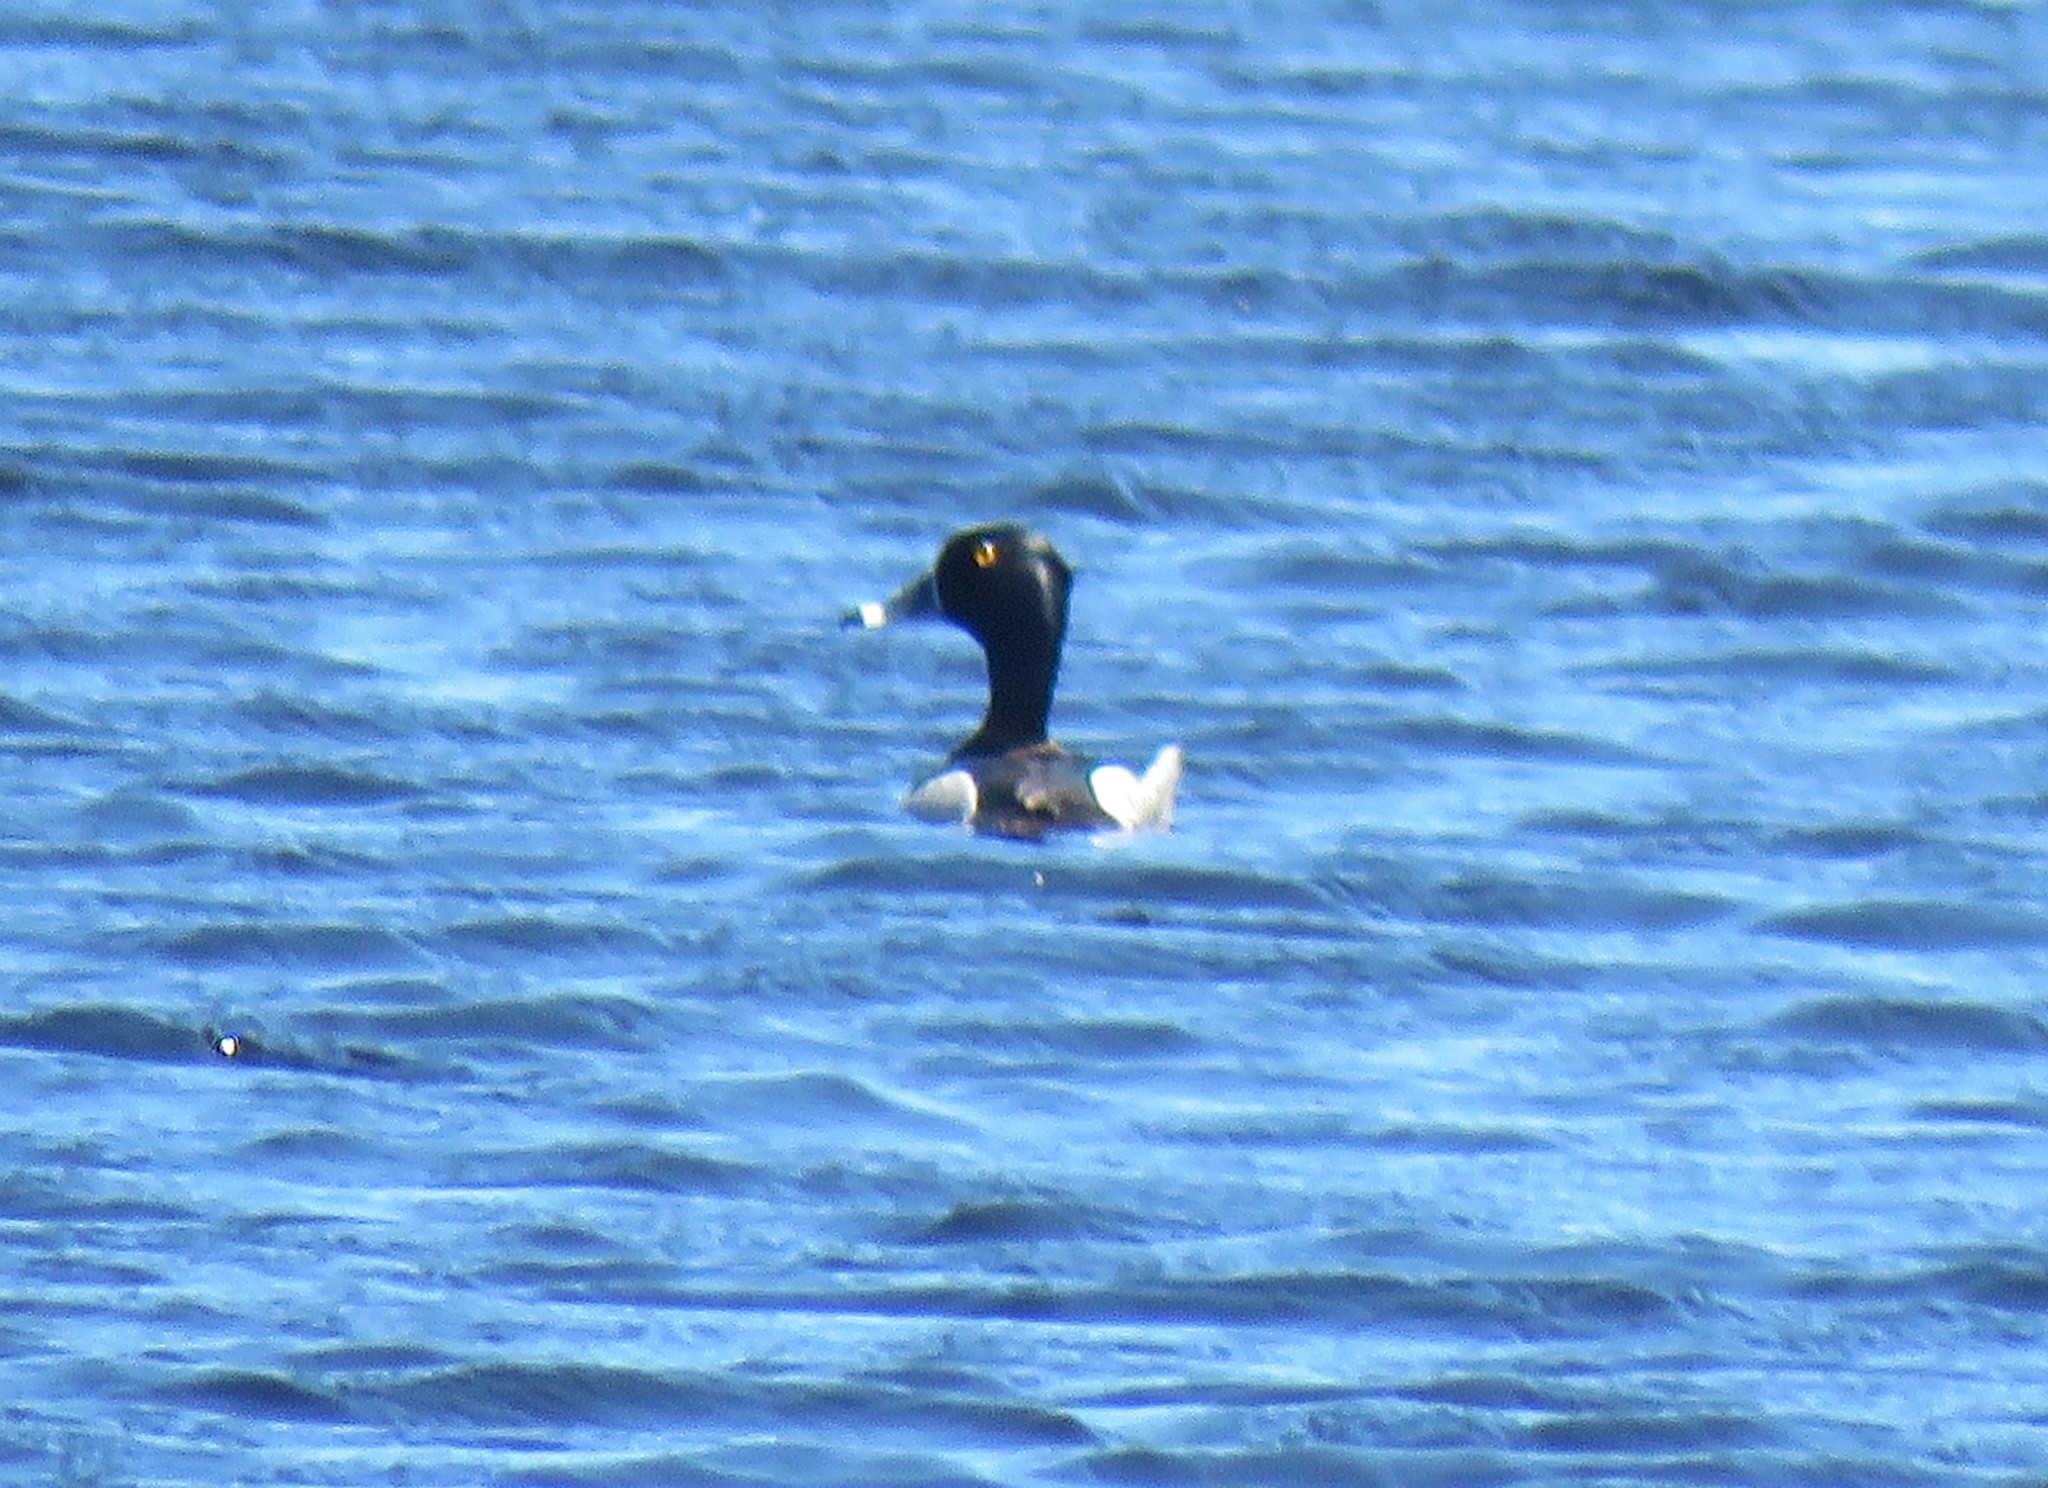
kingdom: Animalia
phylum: Chordata
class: Aves
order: Anseriformes
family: Anatidae
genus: Aythya
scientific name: Aythya collaris
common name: Ring-necked duck
